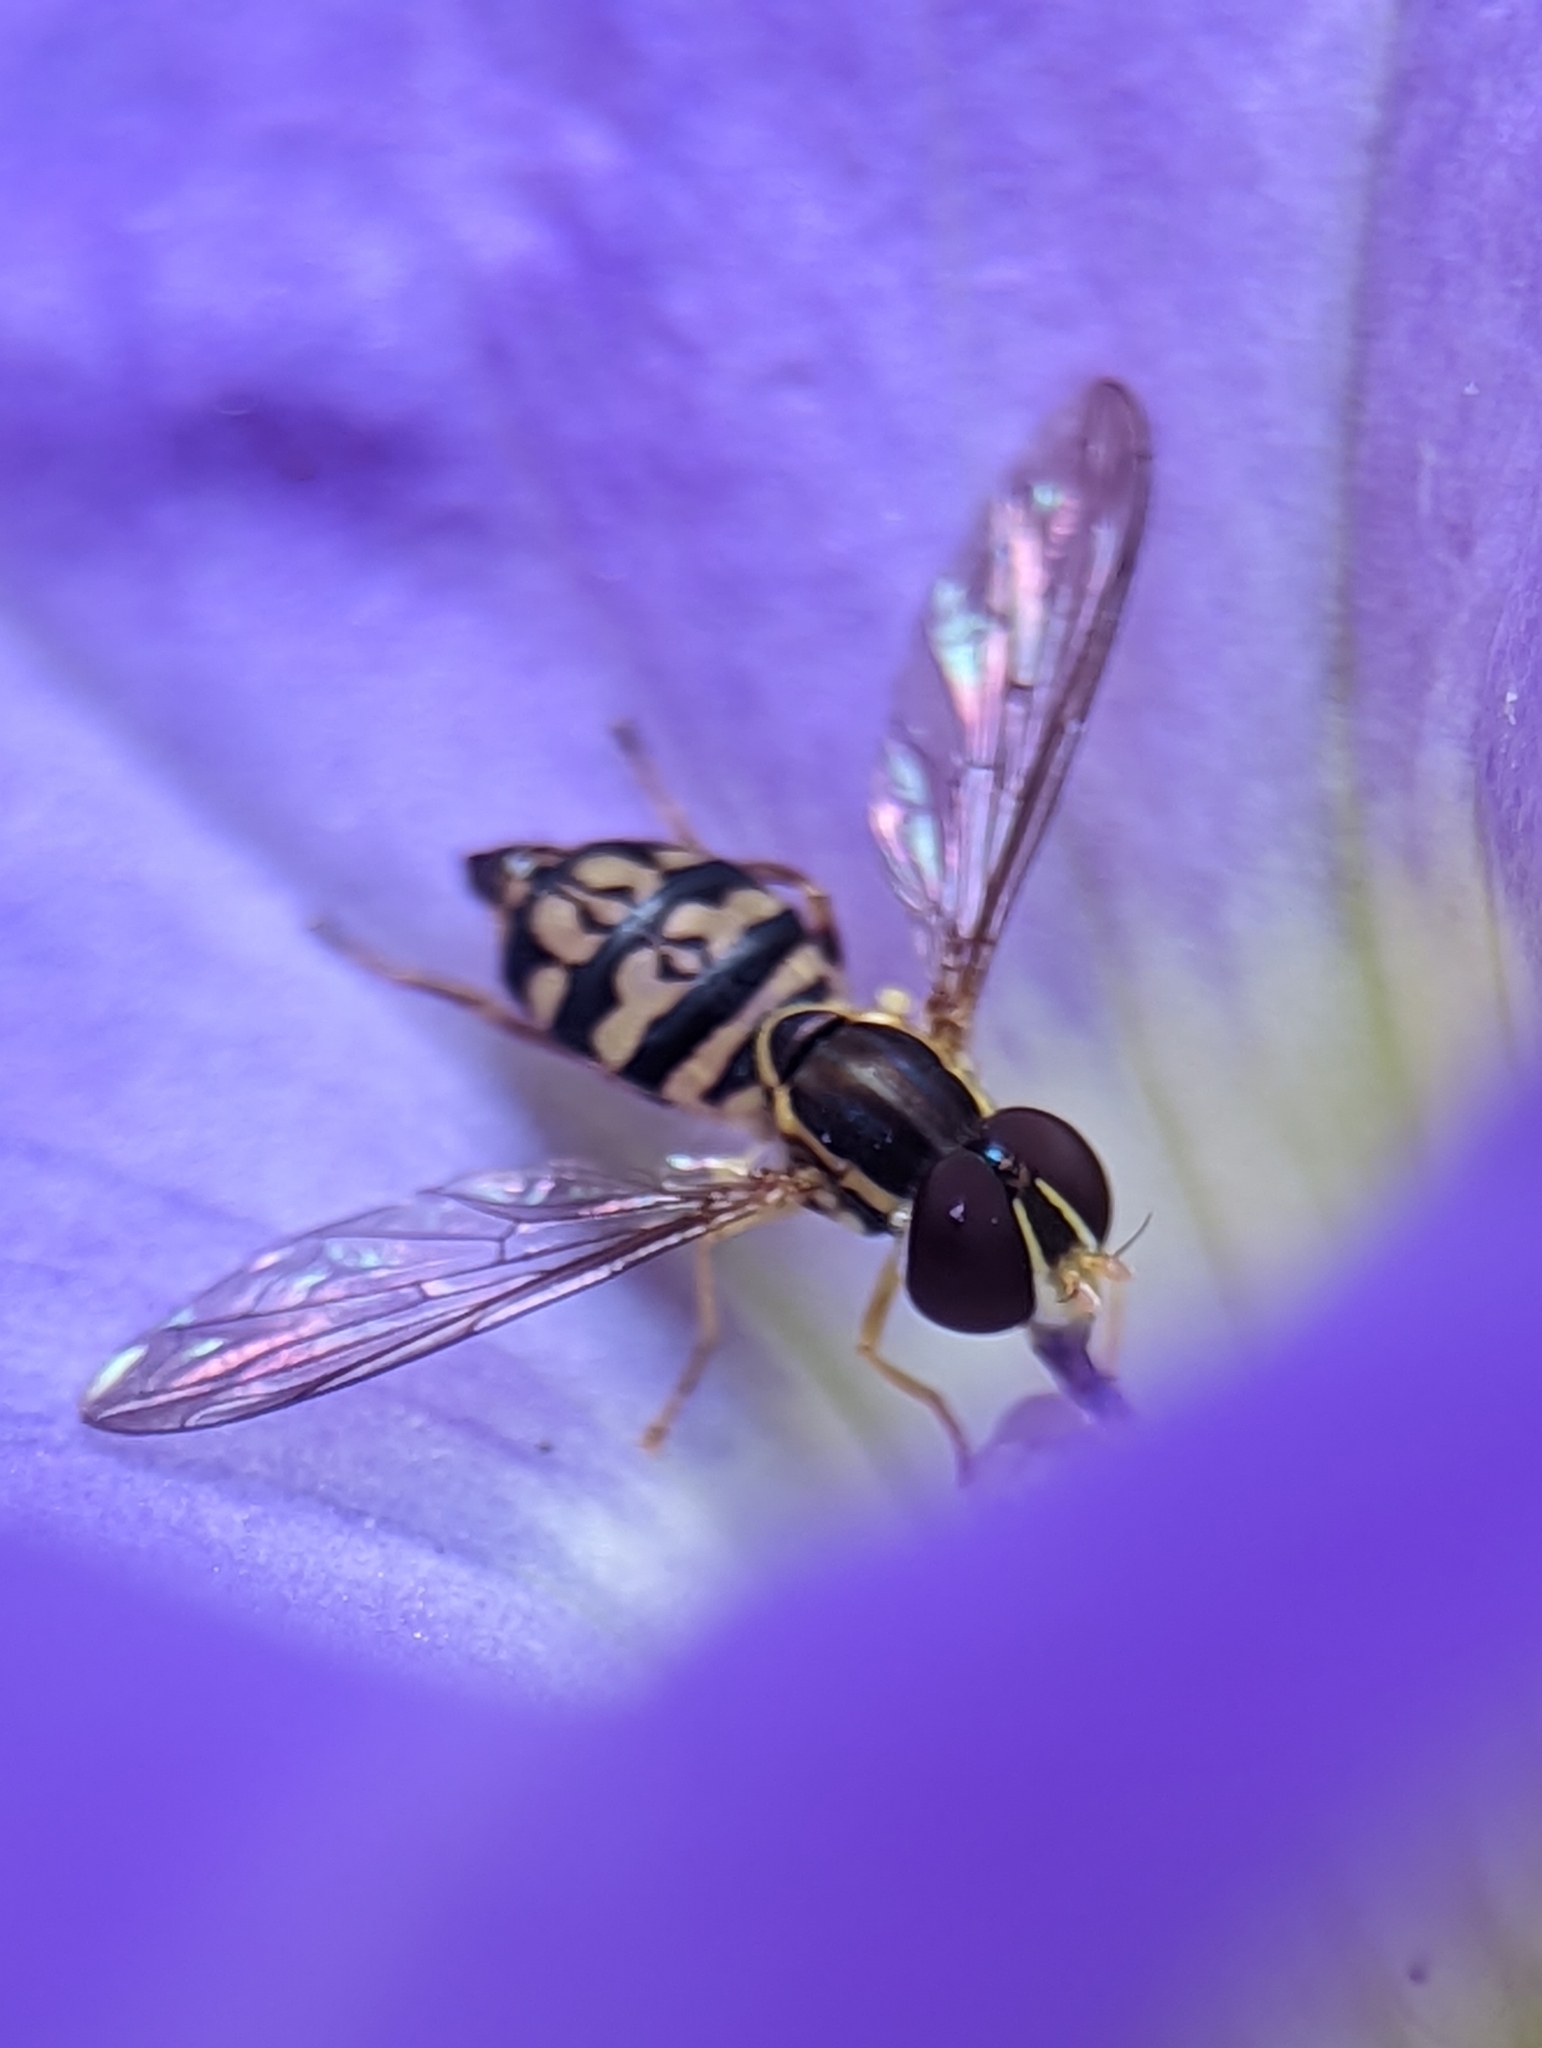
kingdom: Animalia
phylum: Arthropoda
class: Insecta
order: Diptera
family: Syrphidae
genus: Toxomerus
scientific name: Toxomerus geminatus
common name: Eastern calligrapher
